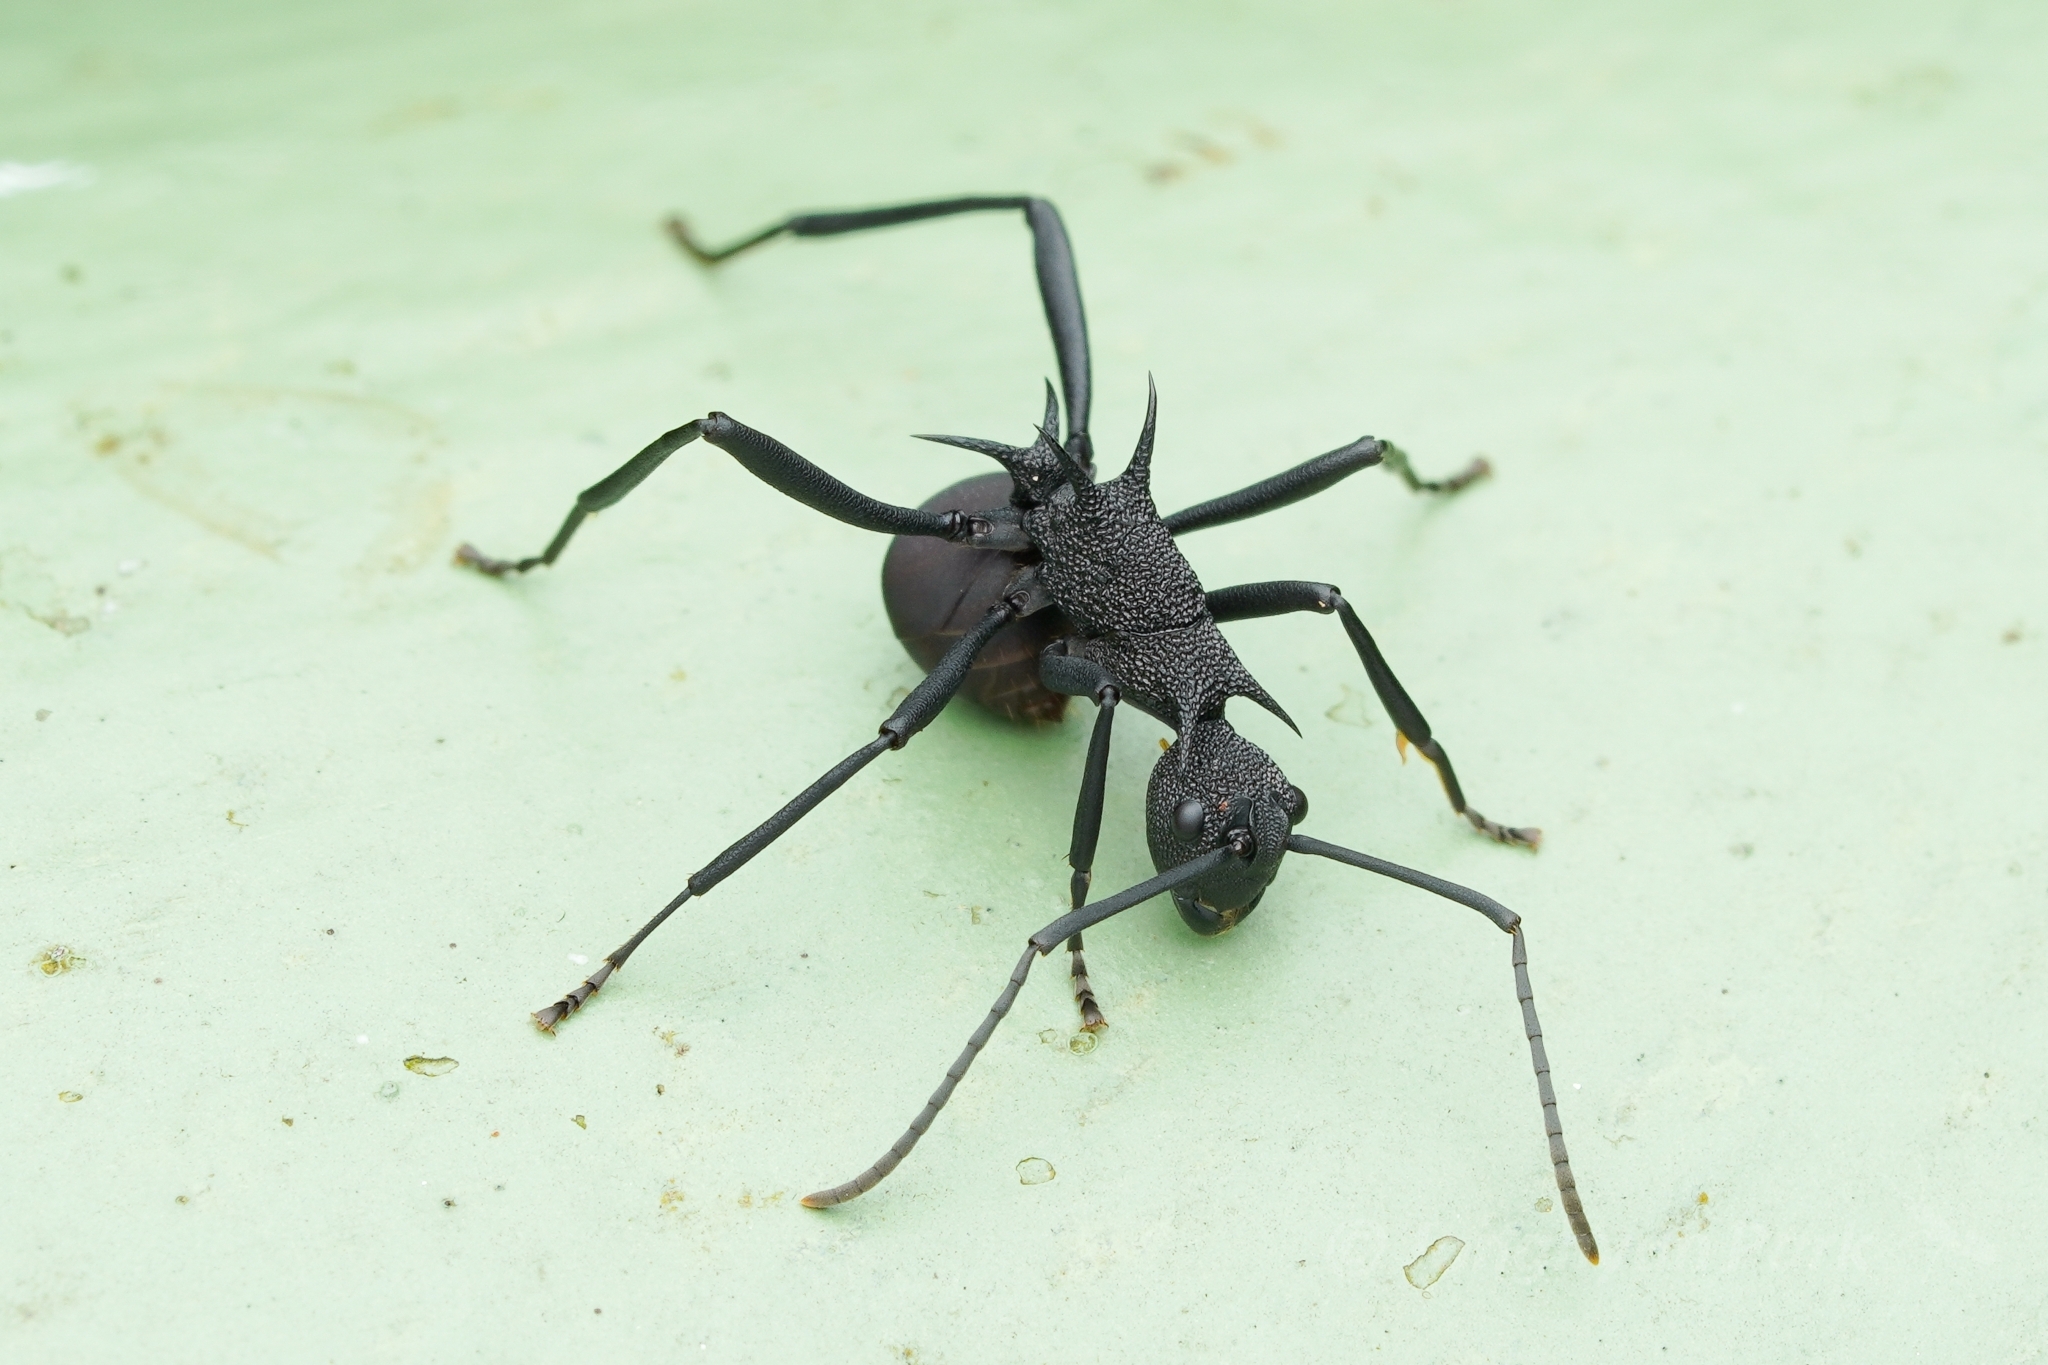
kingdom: Animalia
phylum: Arthropoda
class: Insecta
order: Hymenoptera
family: Formicidae
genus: Polyrhachis
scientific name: Polyrhachis armata
